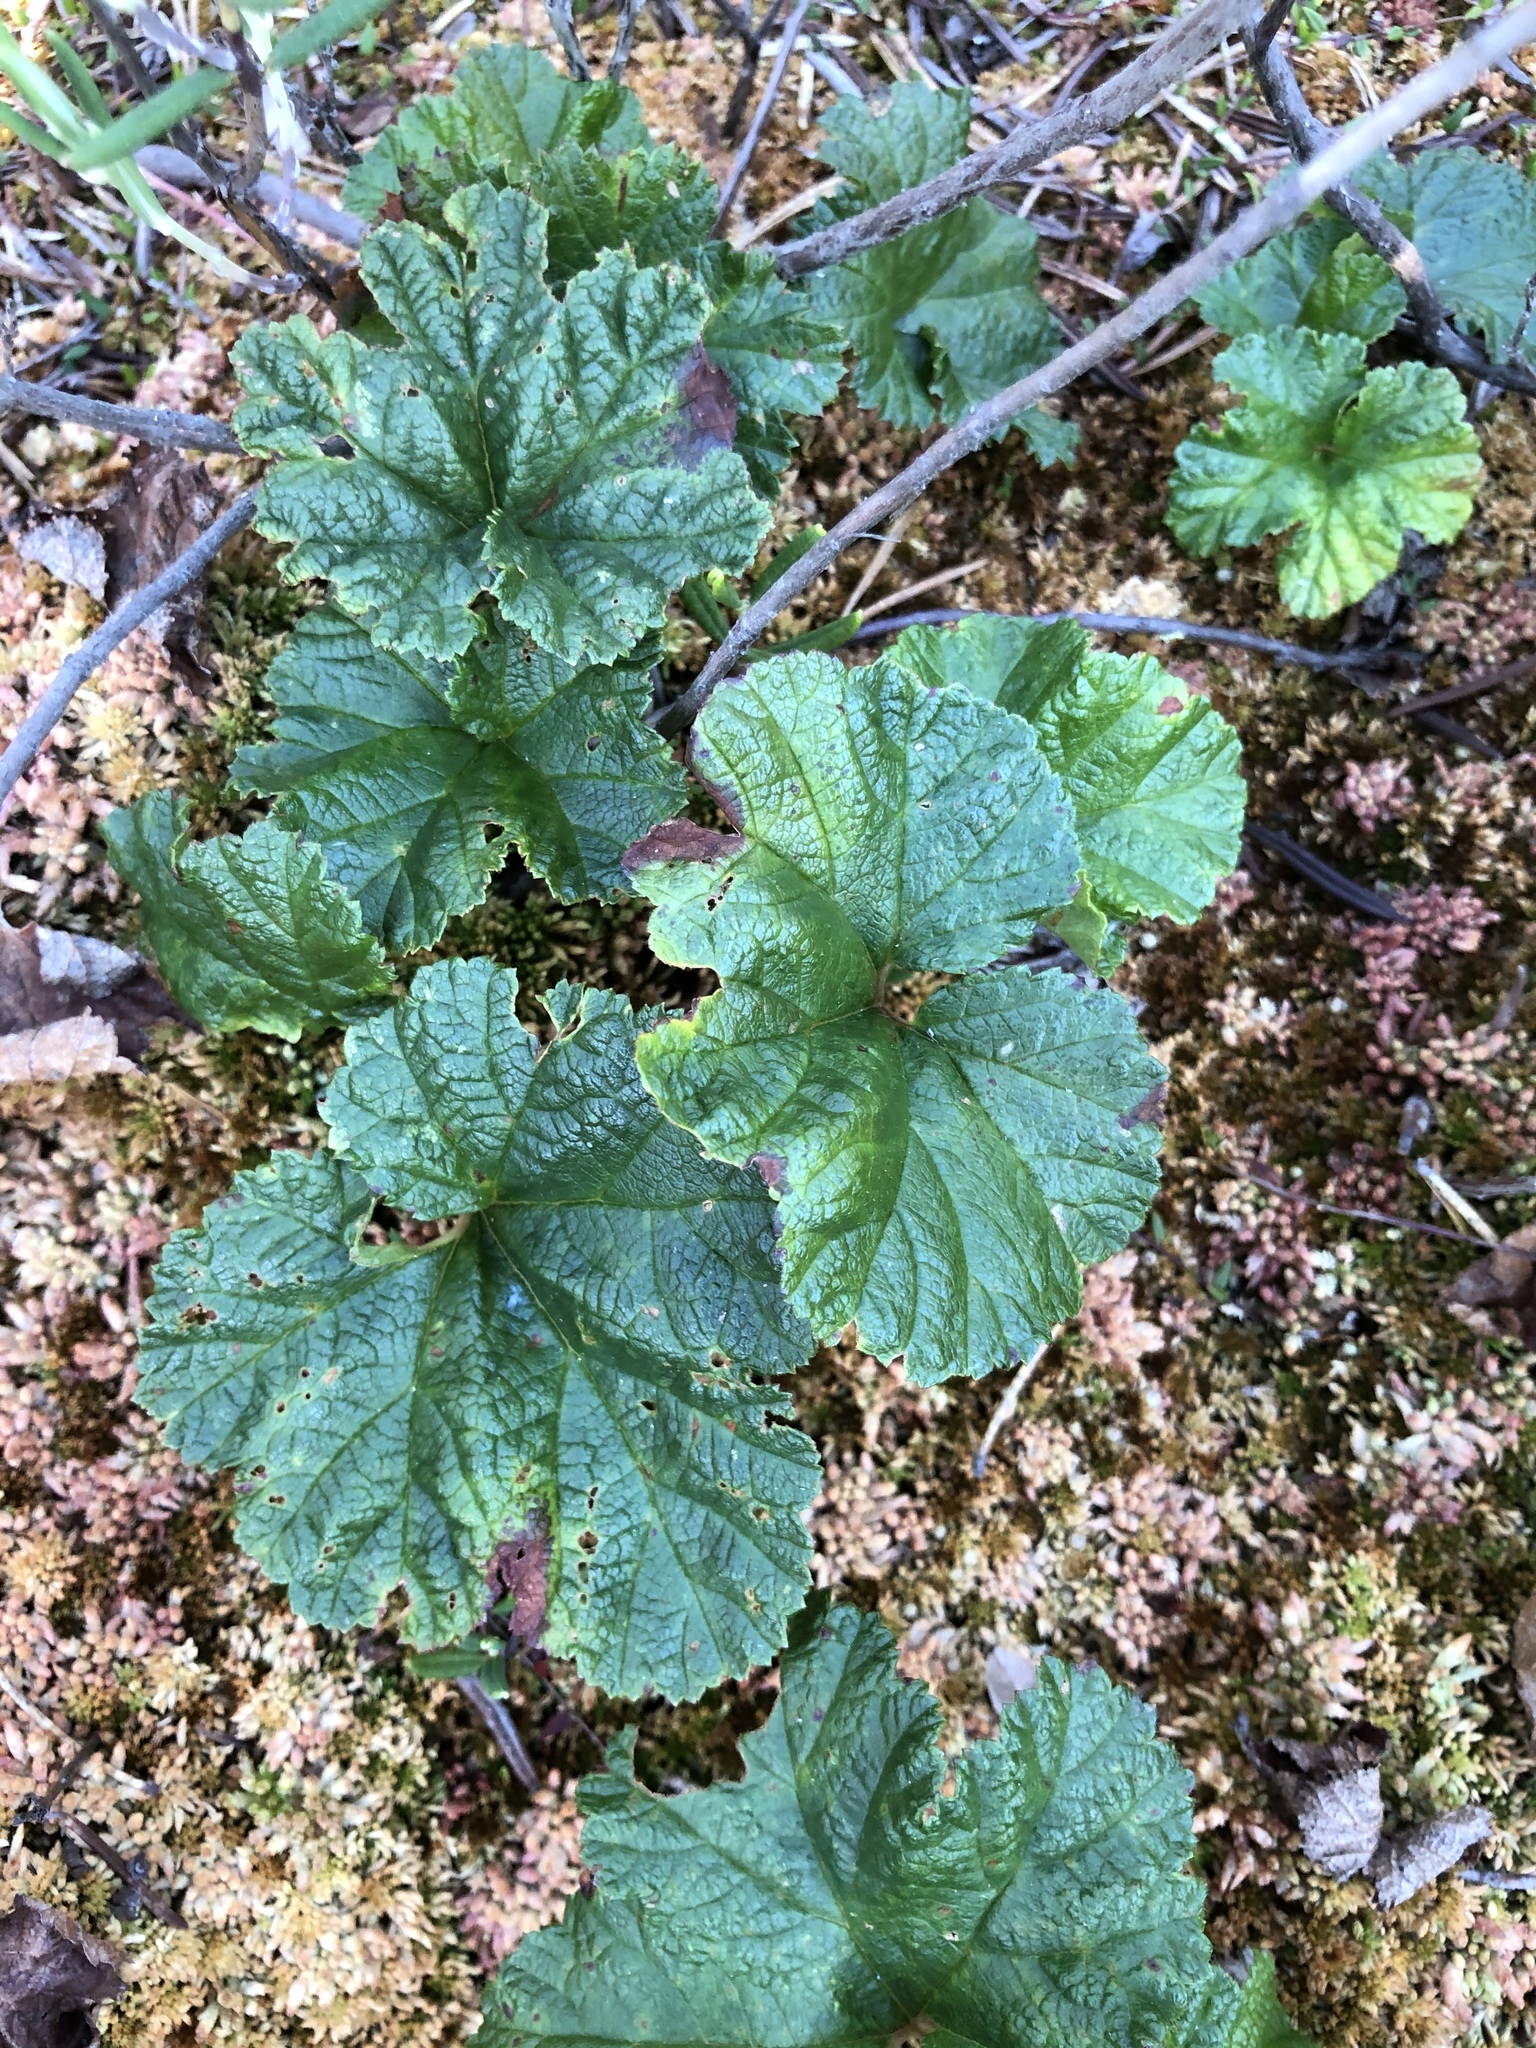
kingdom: Plantae
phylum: Tracheophyta
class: Magnoliopsida
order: Rosales
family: Rosaceae
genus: Rubus
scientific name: Rubus chamaemorus
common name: Cloudberry
